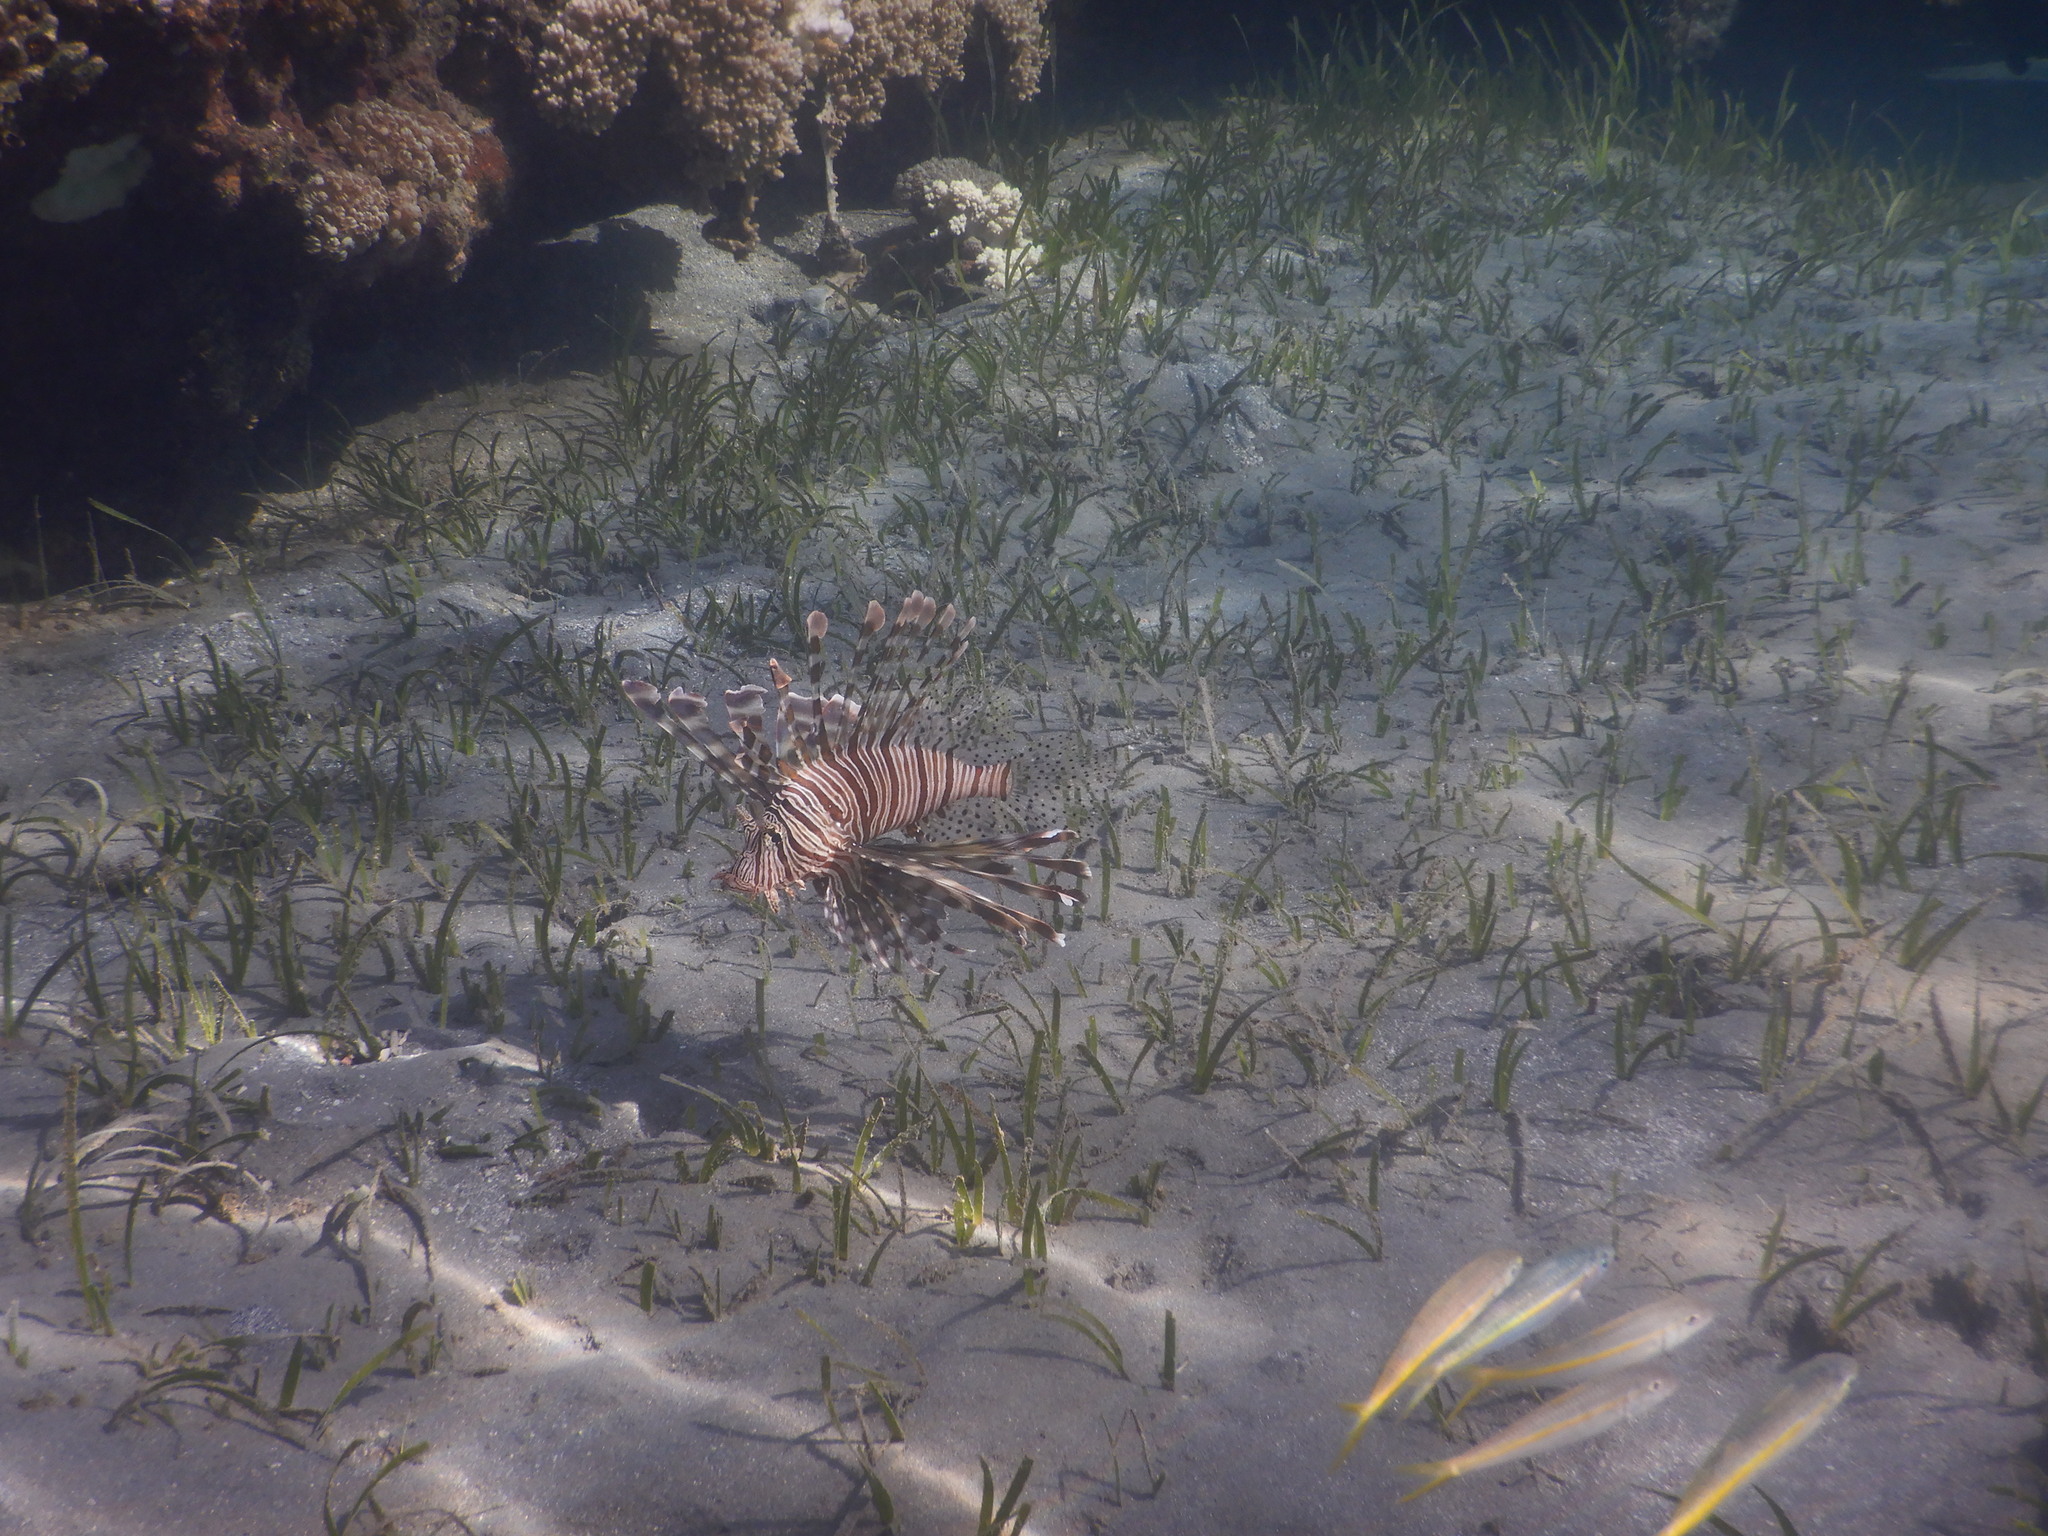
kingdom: Animalia
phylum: Chordata
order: Scorpaeniformes
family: Scorpaenidae
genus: Pterois
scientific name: Pterois miles
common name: Devil firefish
